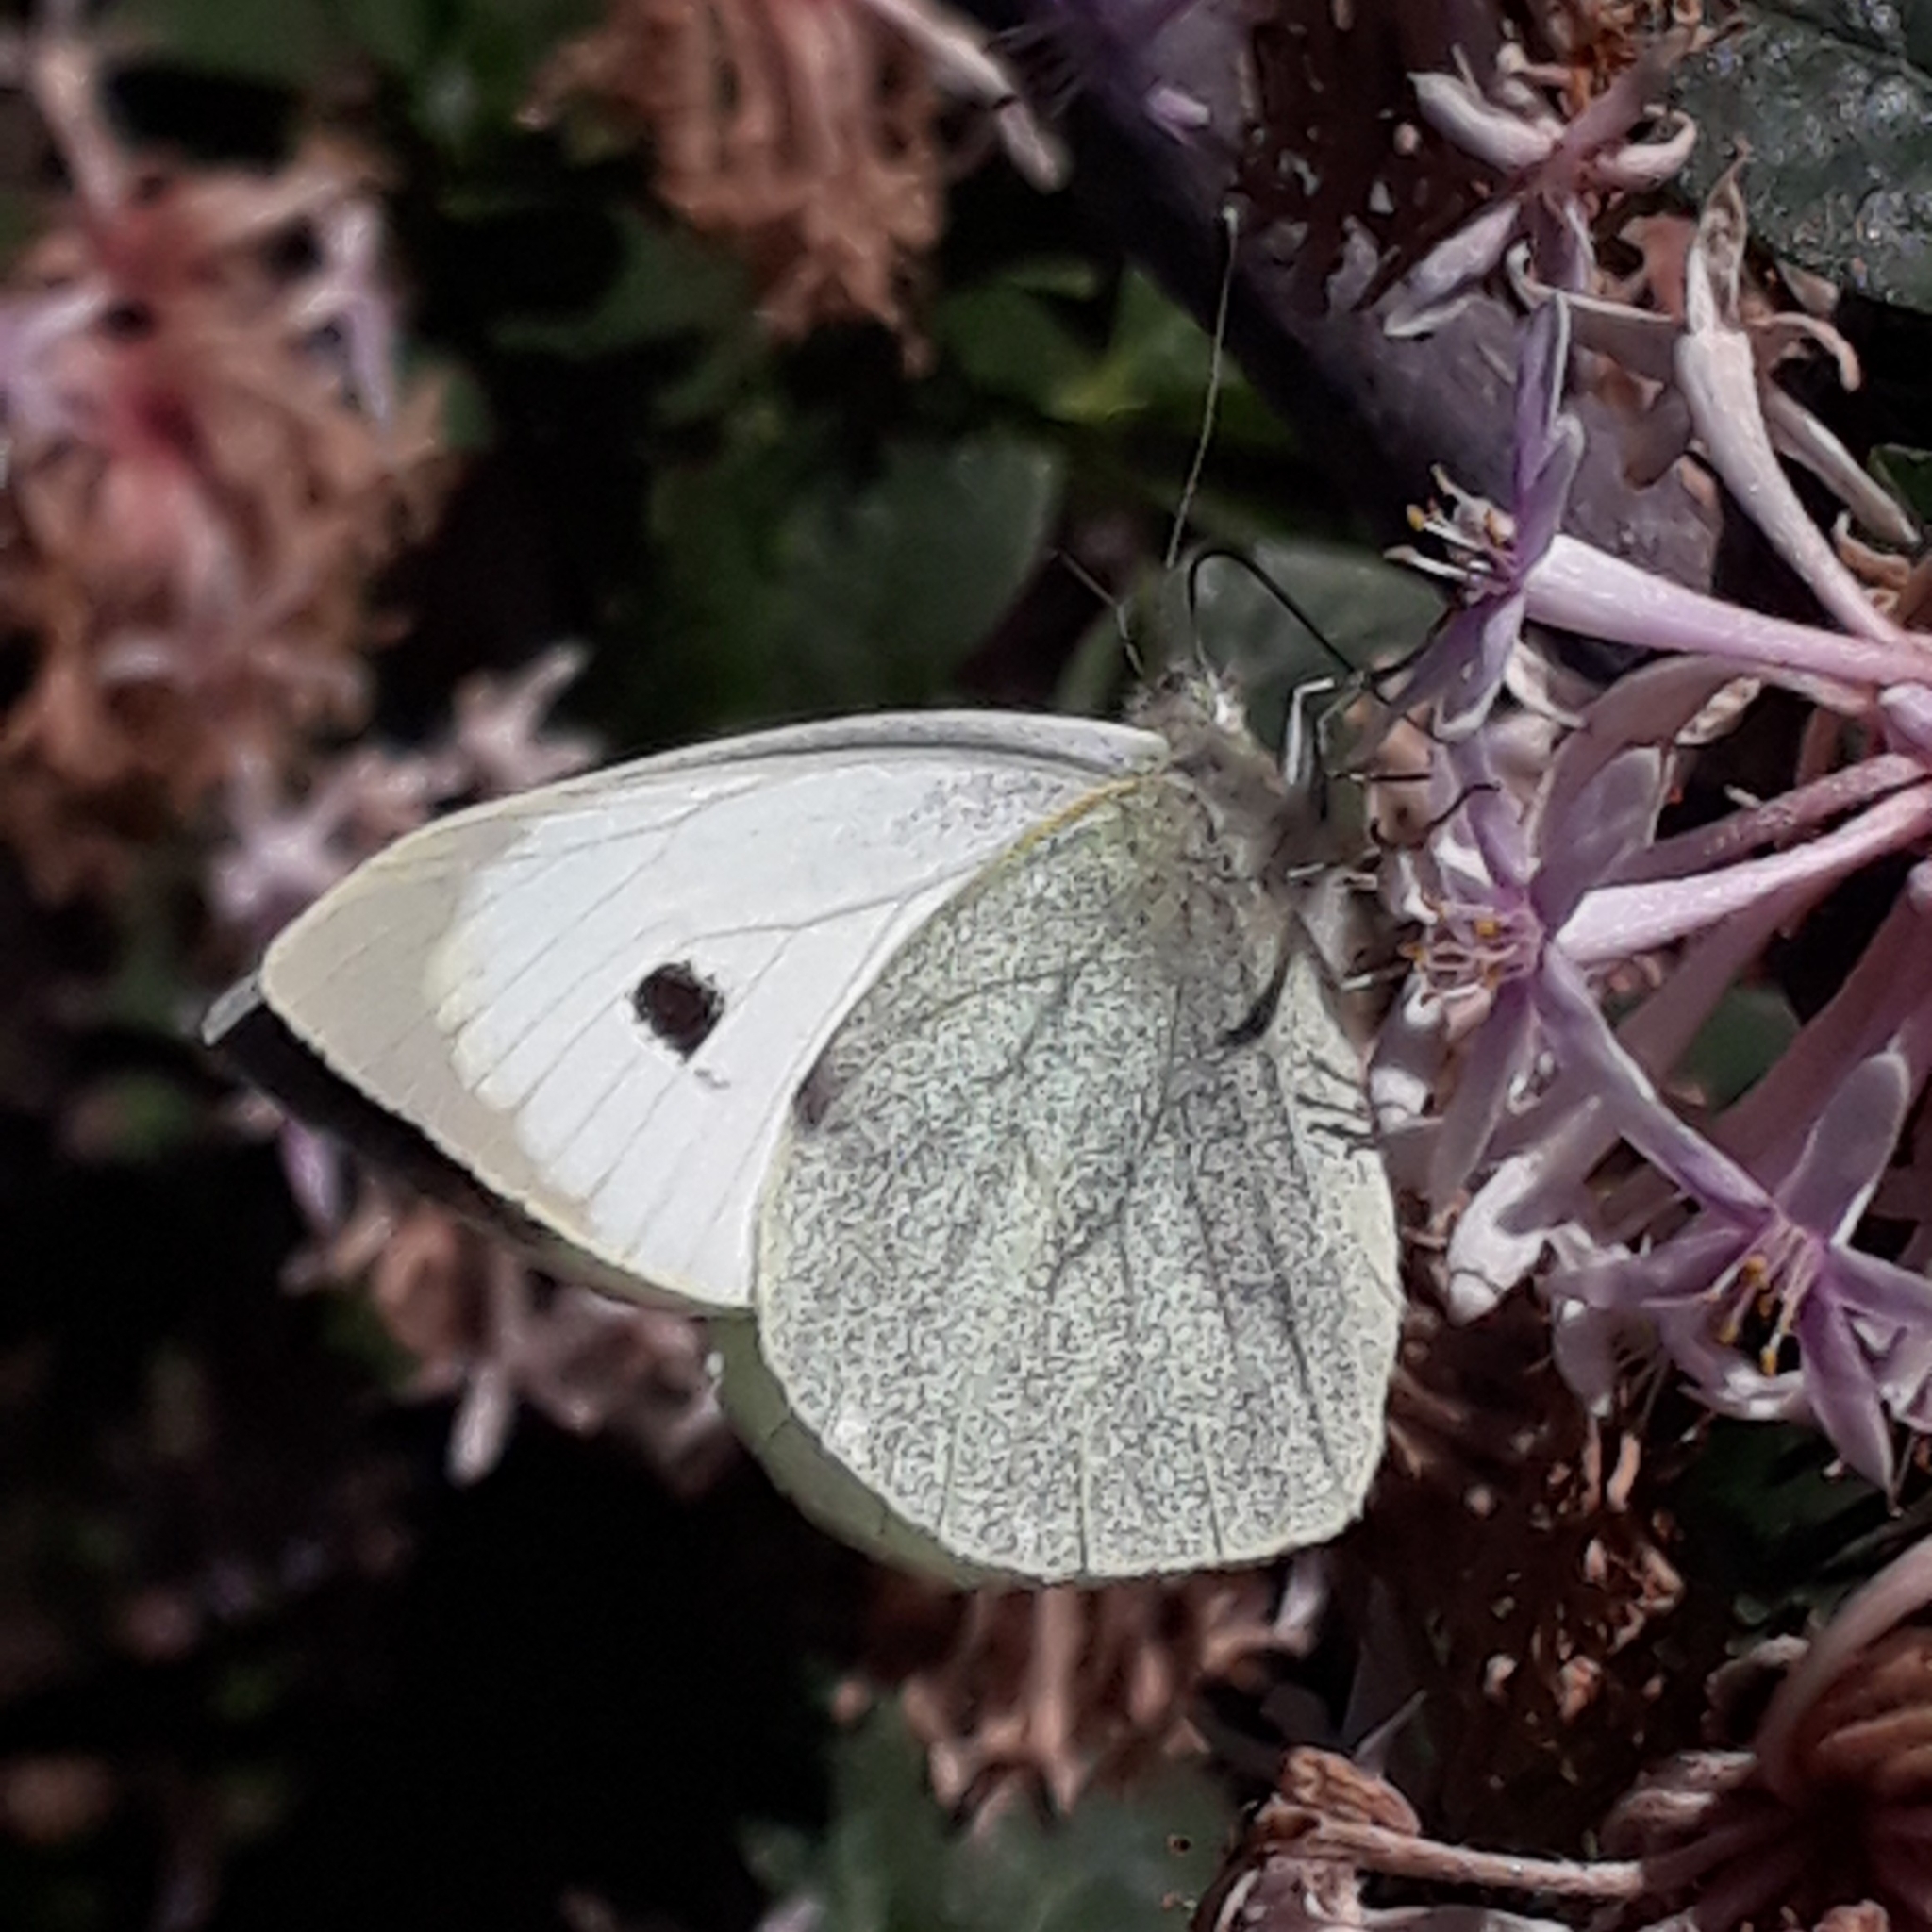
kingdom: Animalia
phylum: Arthropoda
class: Insecta
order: Lepidoptera
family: Pieridae
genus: Pieris
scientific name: Pieris brassicae
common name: Large white
